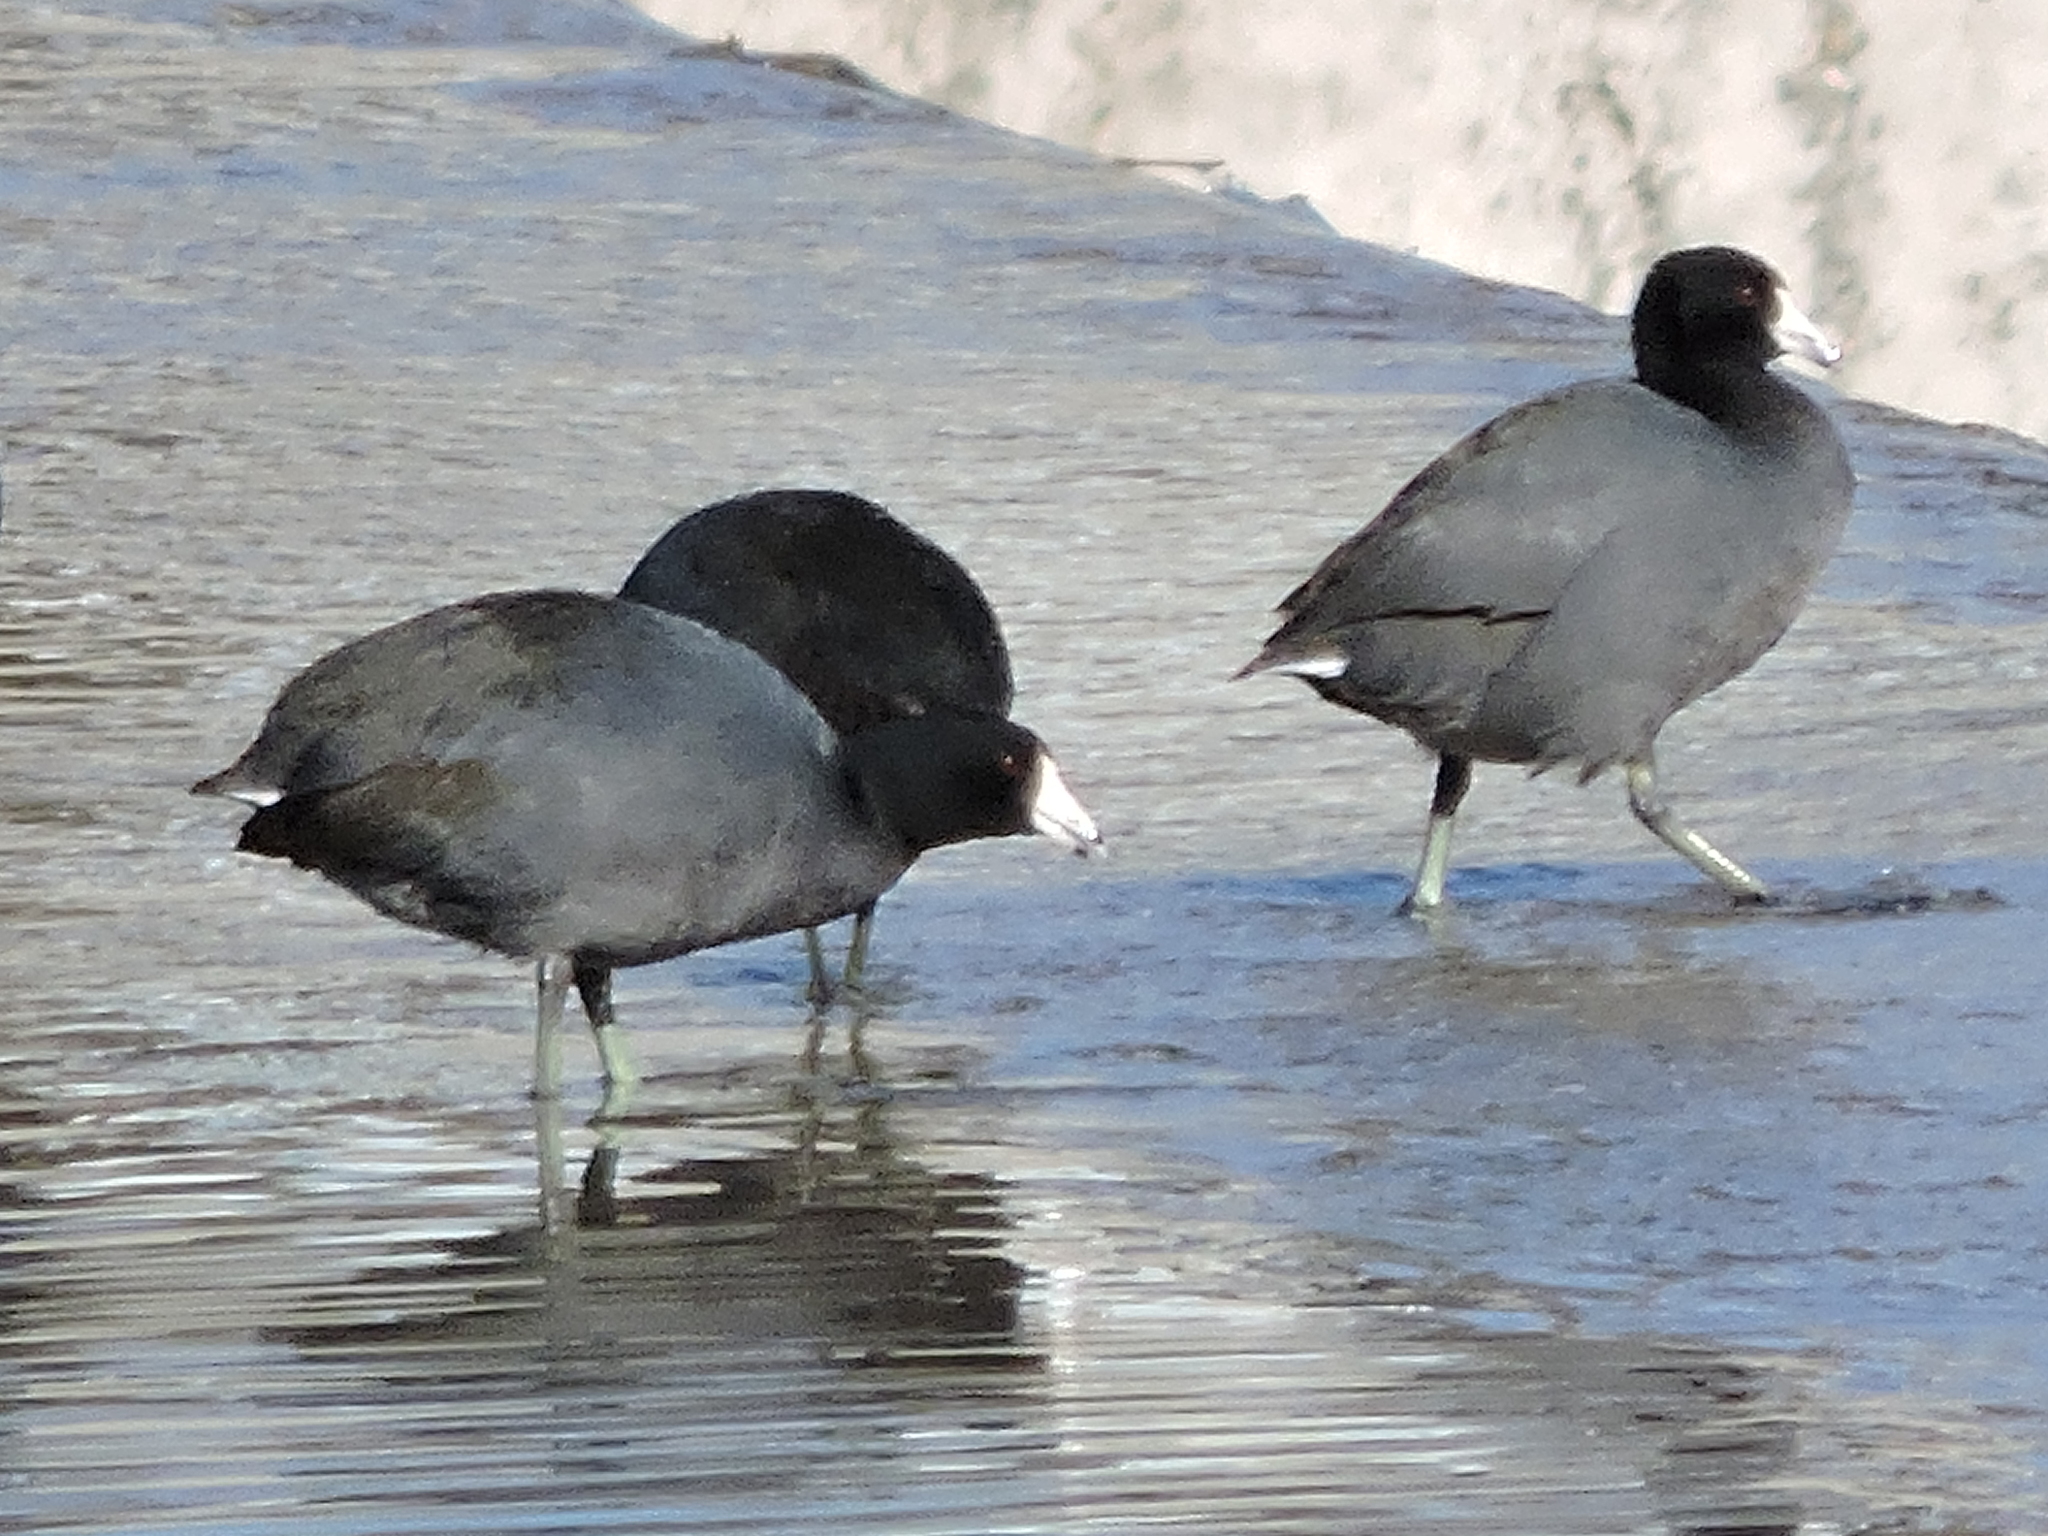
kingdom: Animalia
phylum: Chordata
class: Aves
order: Gruiformes
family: Rallidae
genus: Fulica
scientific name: Fulica americana
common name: American coot
